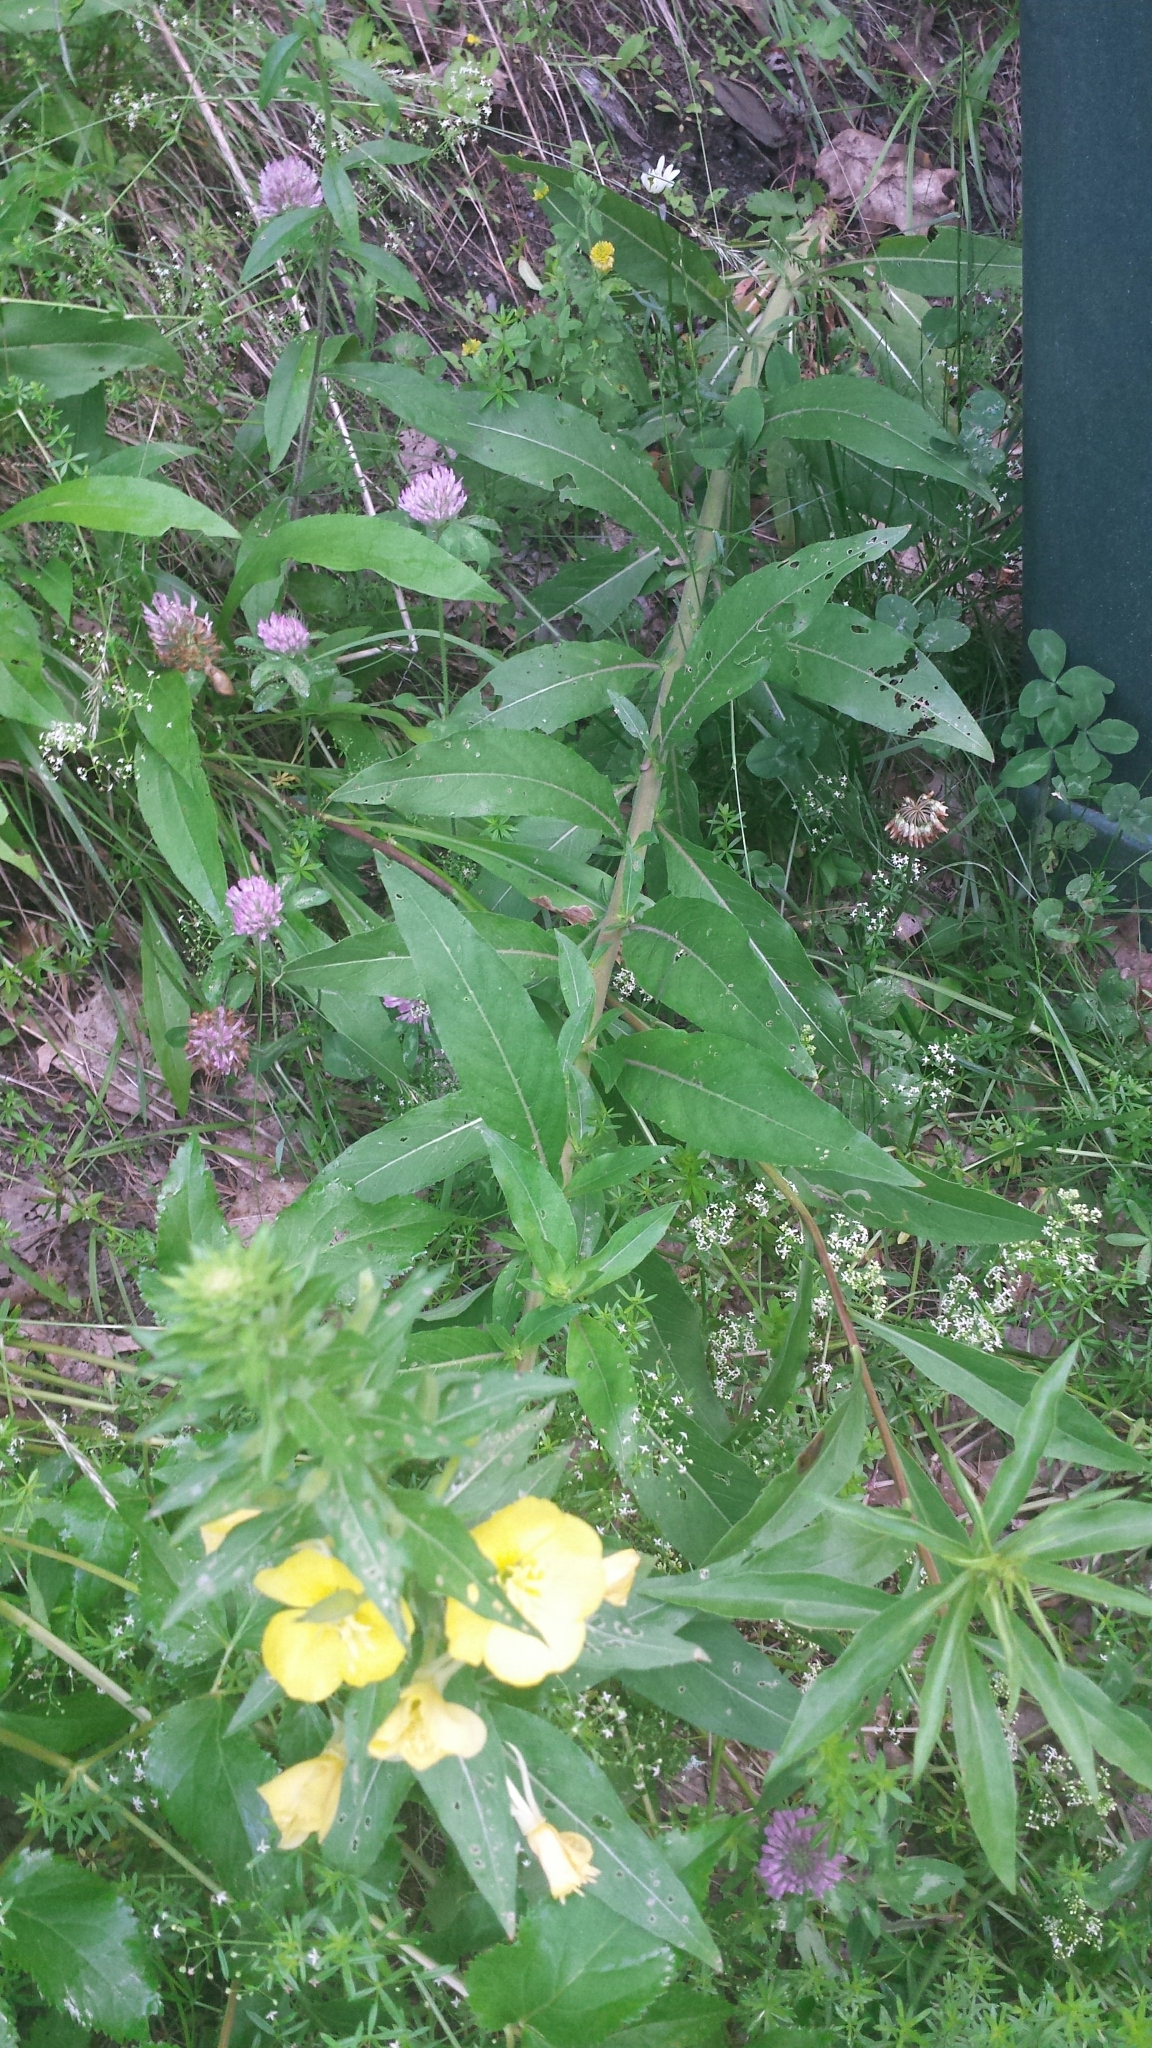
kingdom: Plantae
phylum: Tracheophyta
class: Magnoliopsida
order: Myrtales
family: Onagraceae
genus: Oenothera
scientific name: Oenothera biennis
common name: Common evening-primrose
